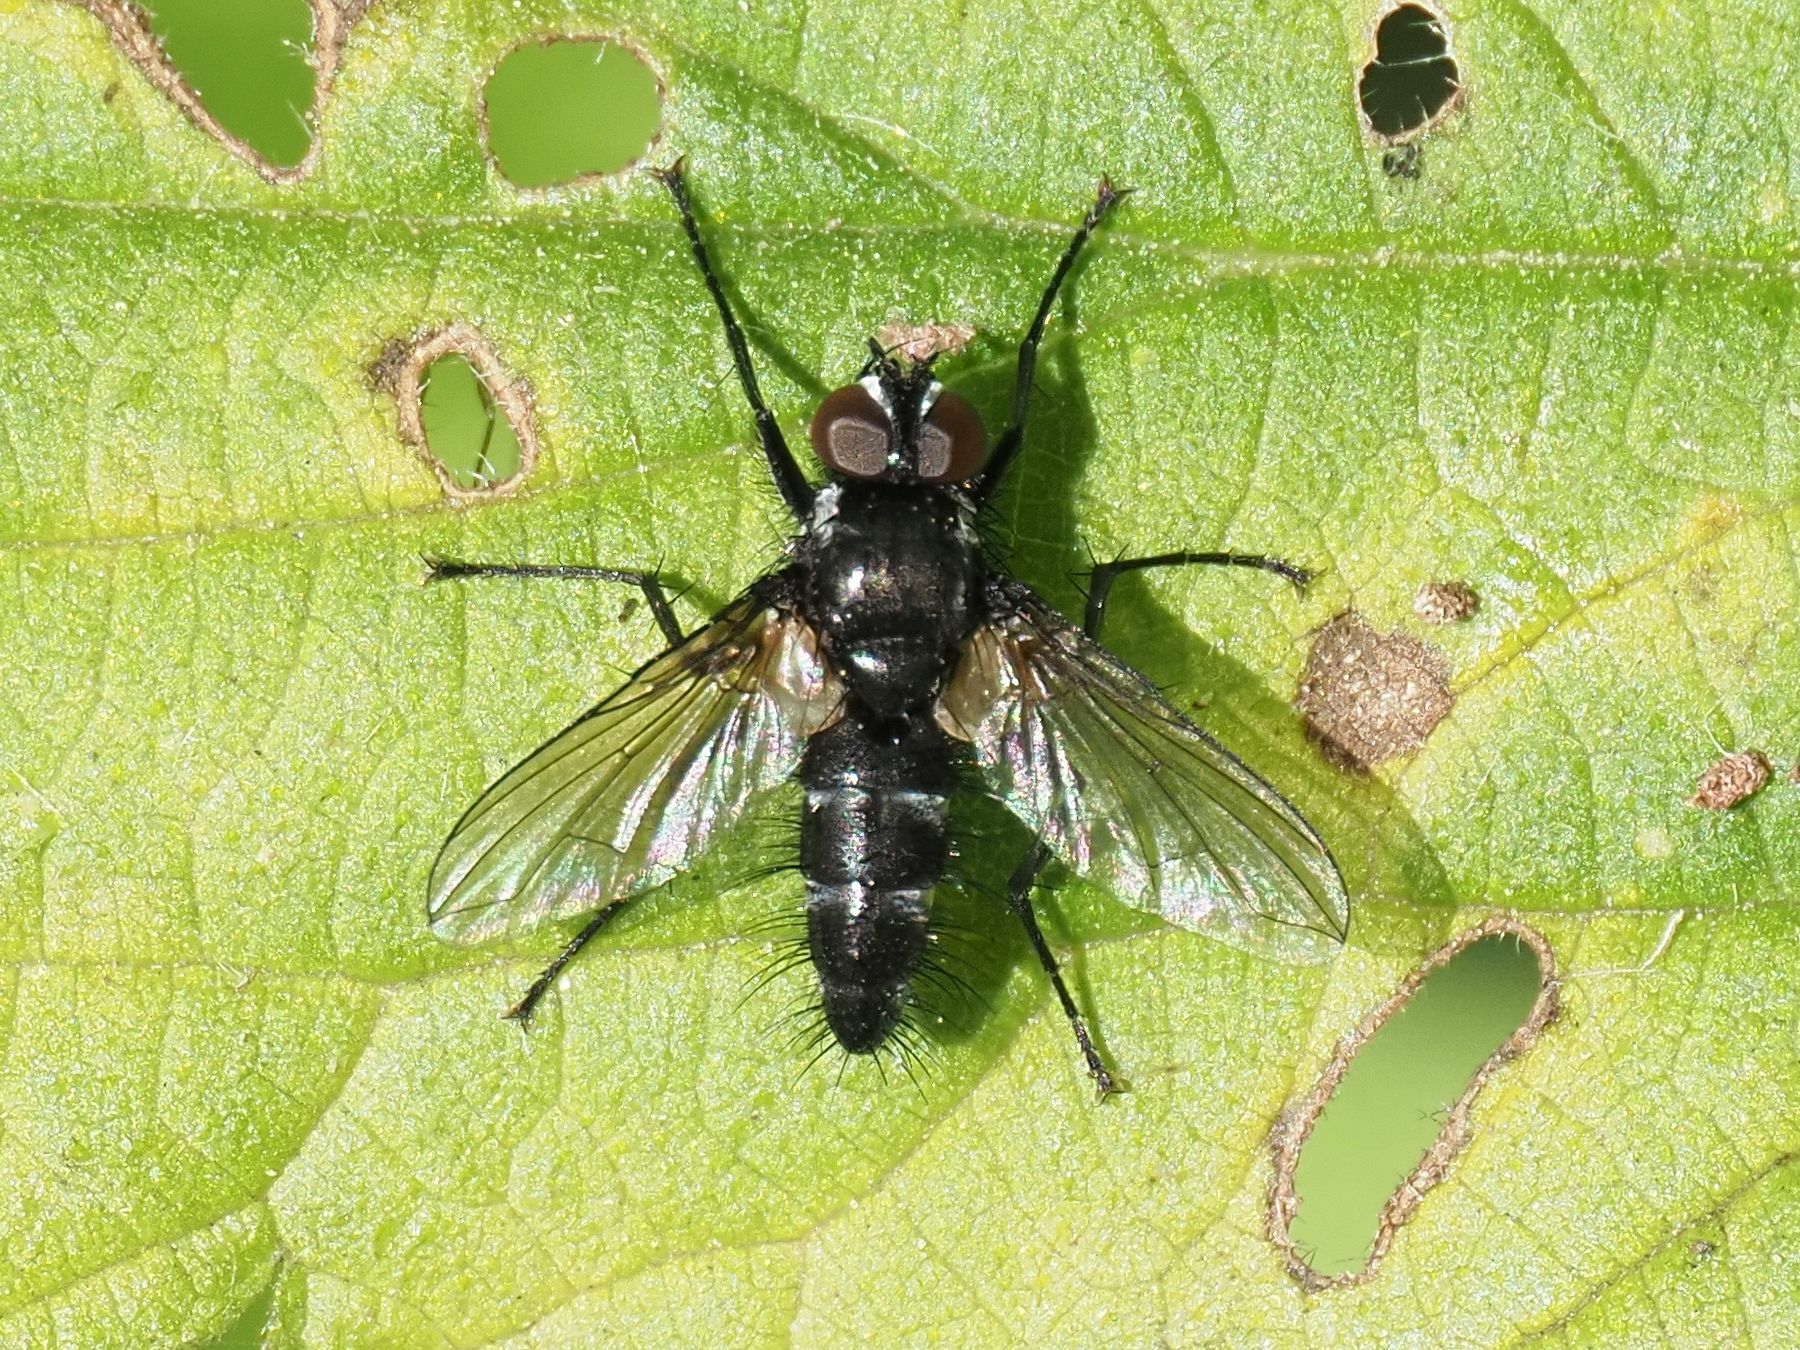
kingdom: Animalia
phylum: Arthropoda
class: Insecta
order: Diptera
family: Tachinidae
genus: Phyllomya
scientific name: Phyllomya volvulus
